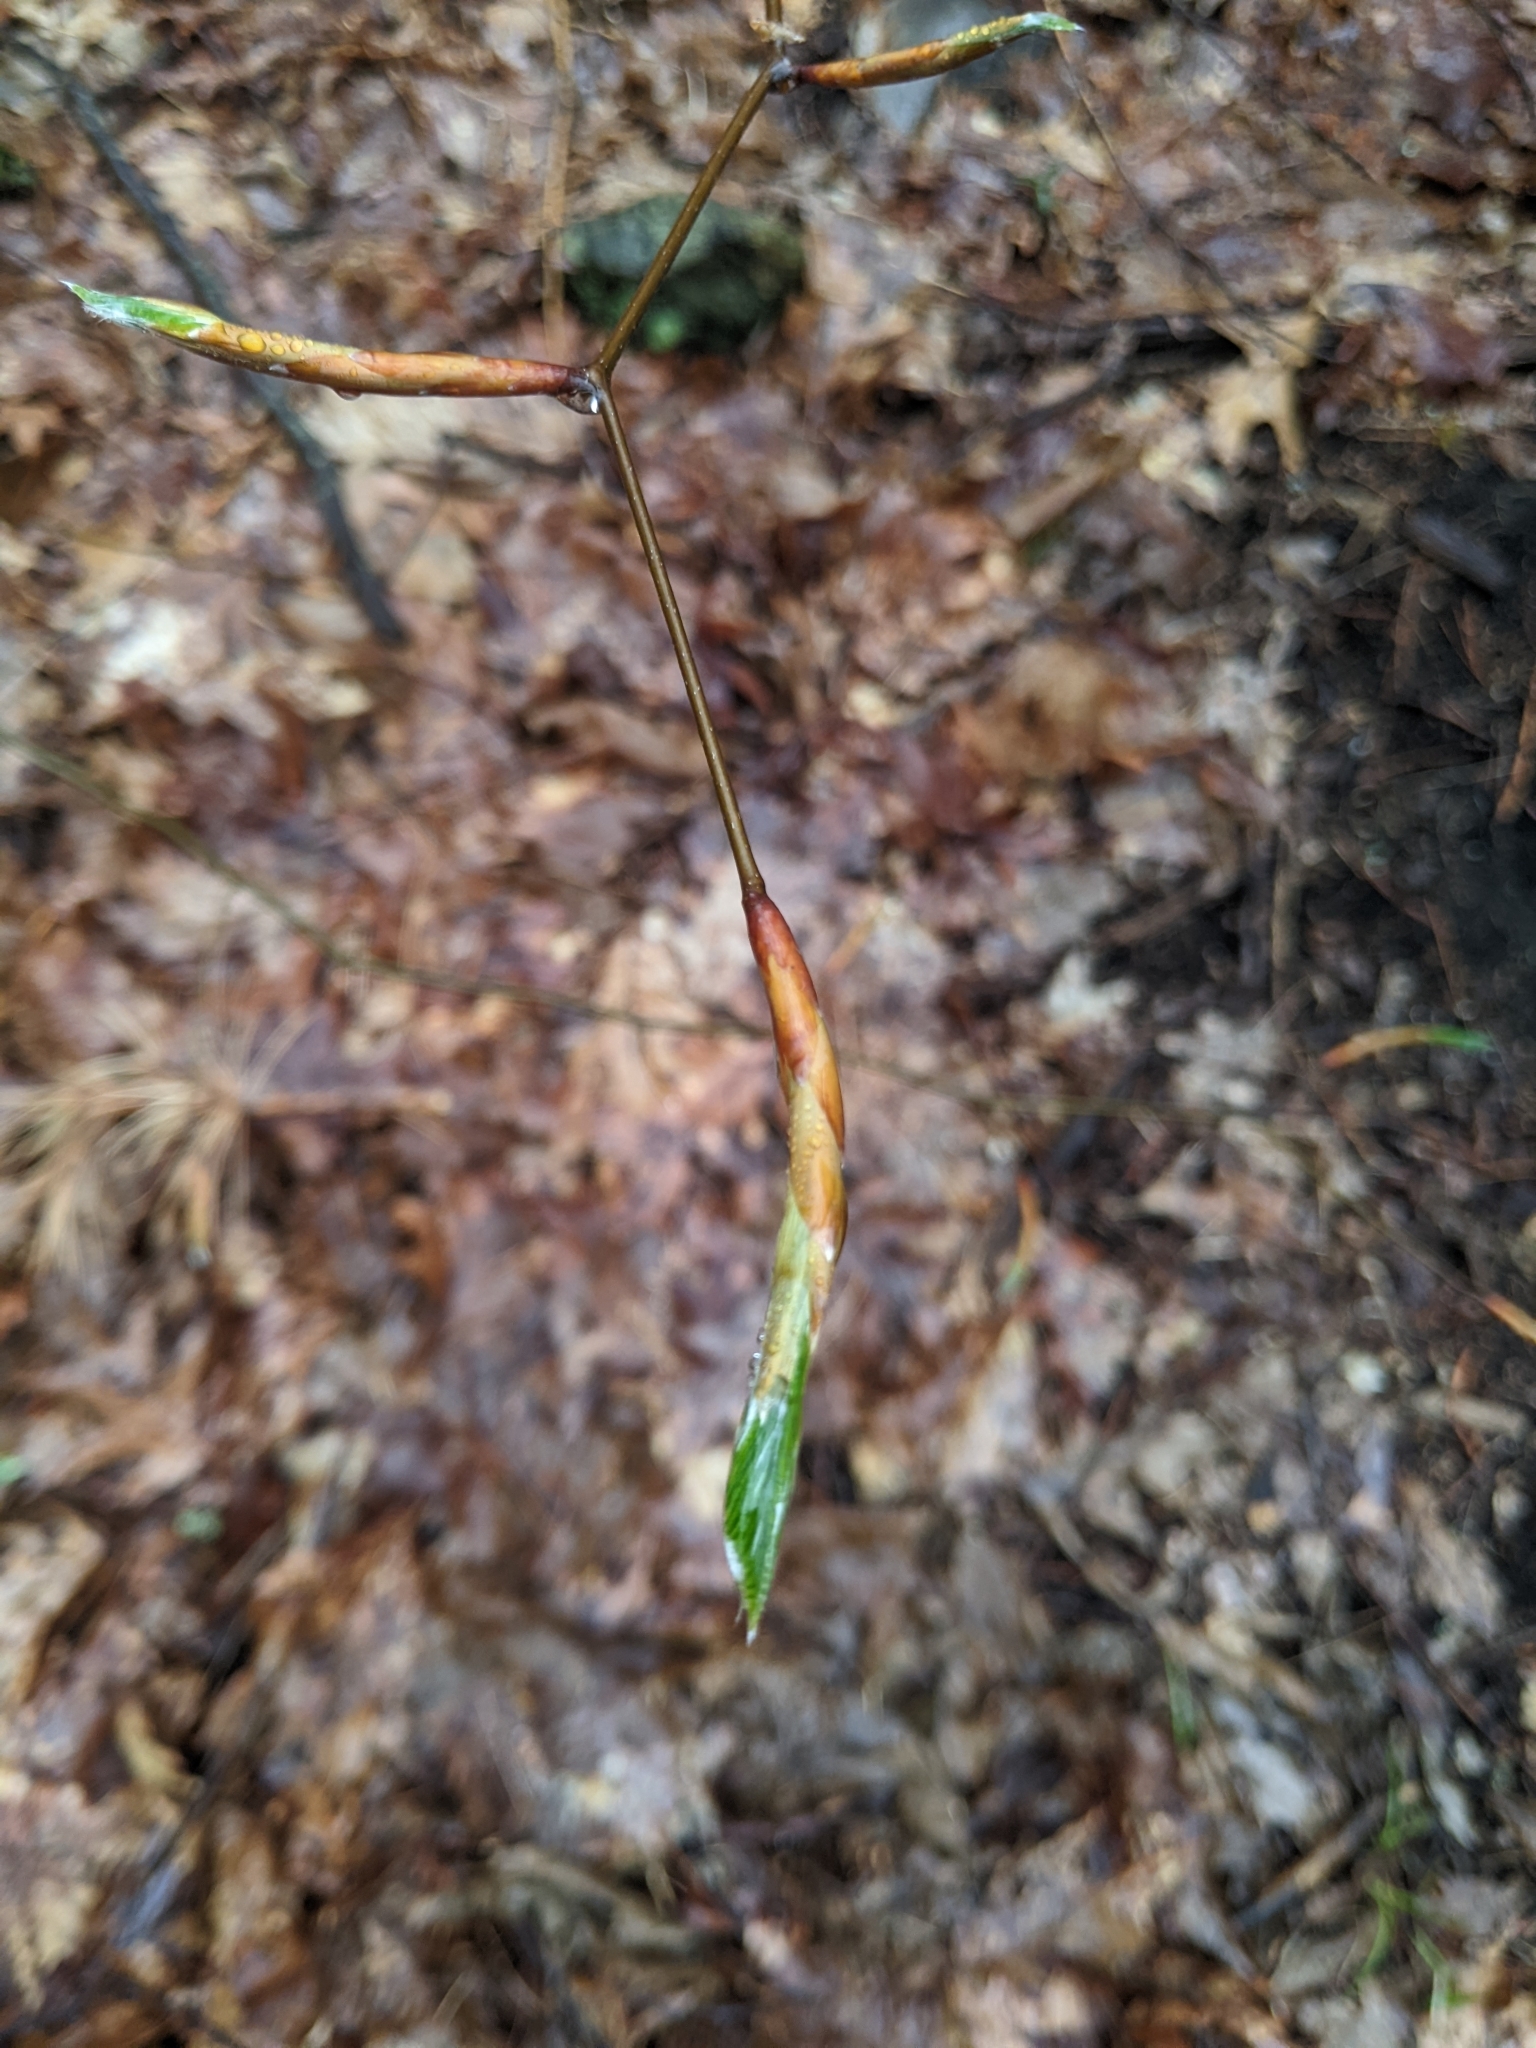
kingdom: Plantae
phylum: Tracheophyta
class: Magnoliopsida
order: Fagales
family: Fagaceae
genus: Fagus
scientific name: Fagus grandifolia
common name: American beech
